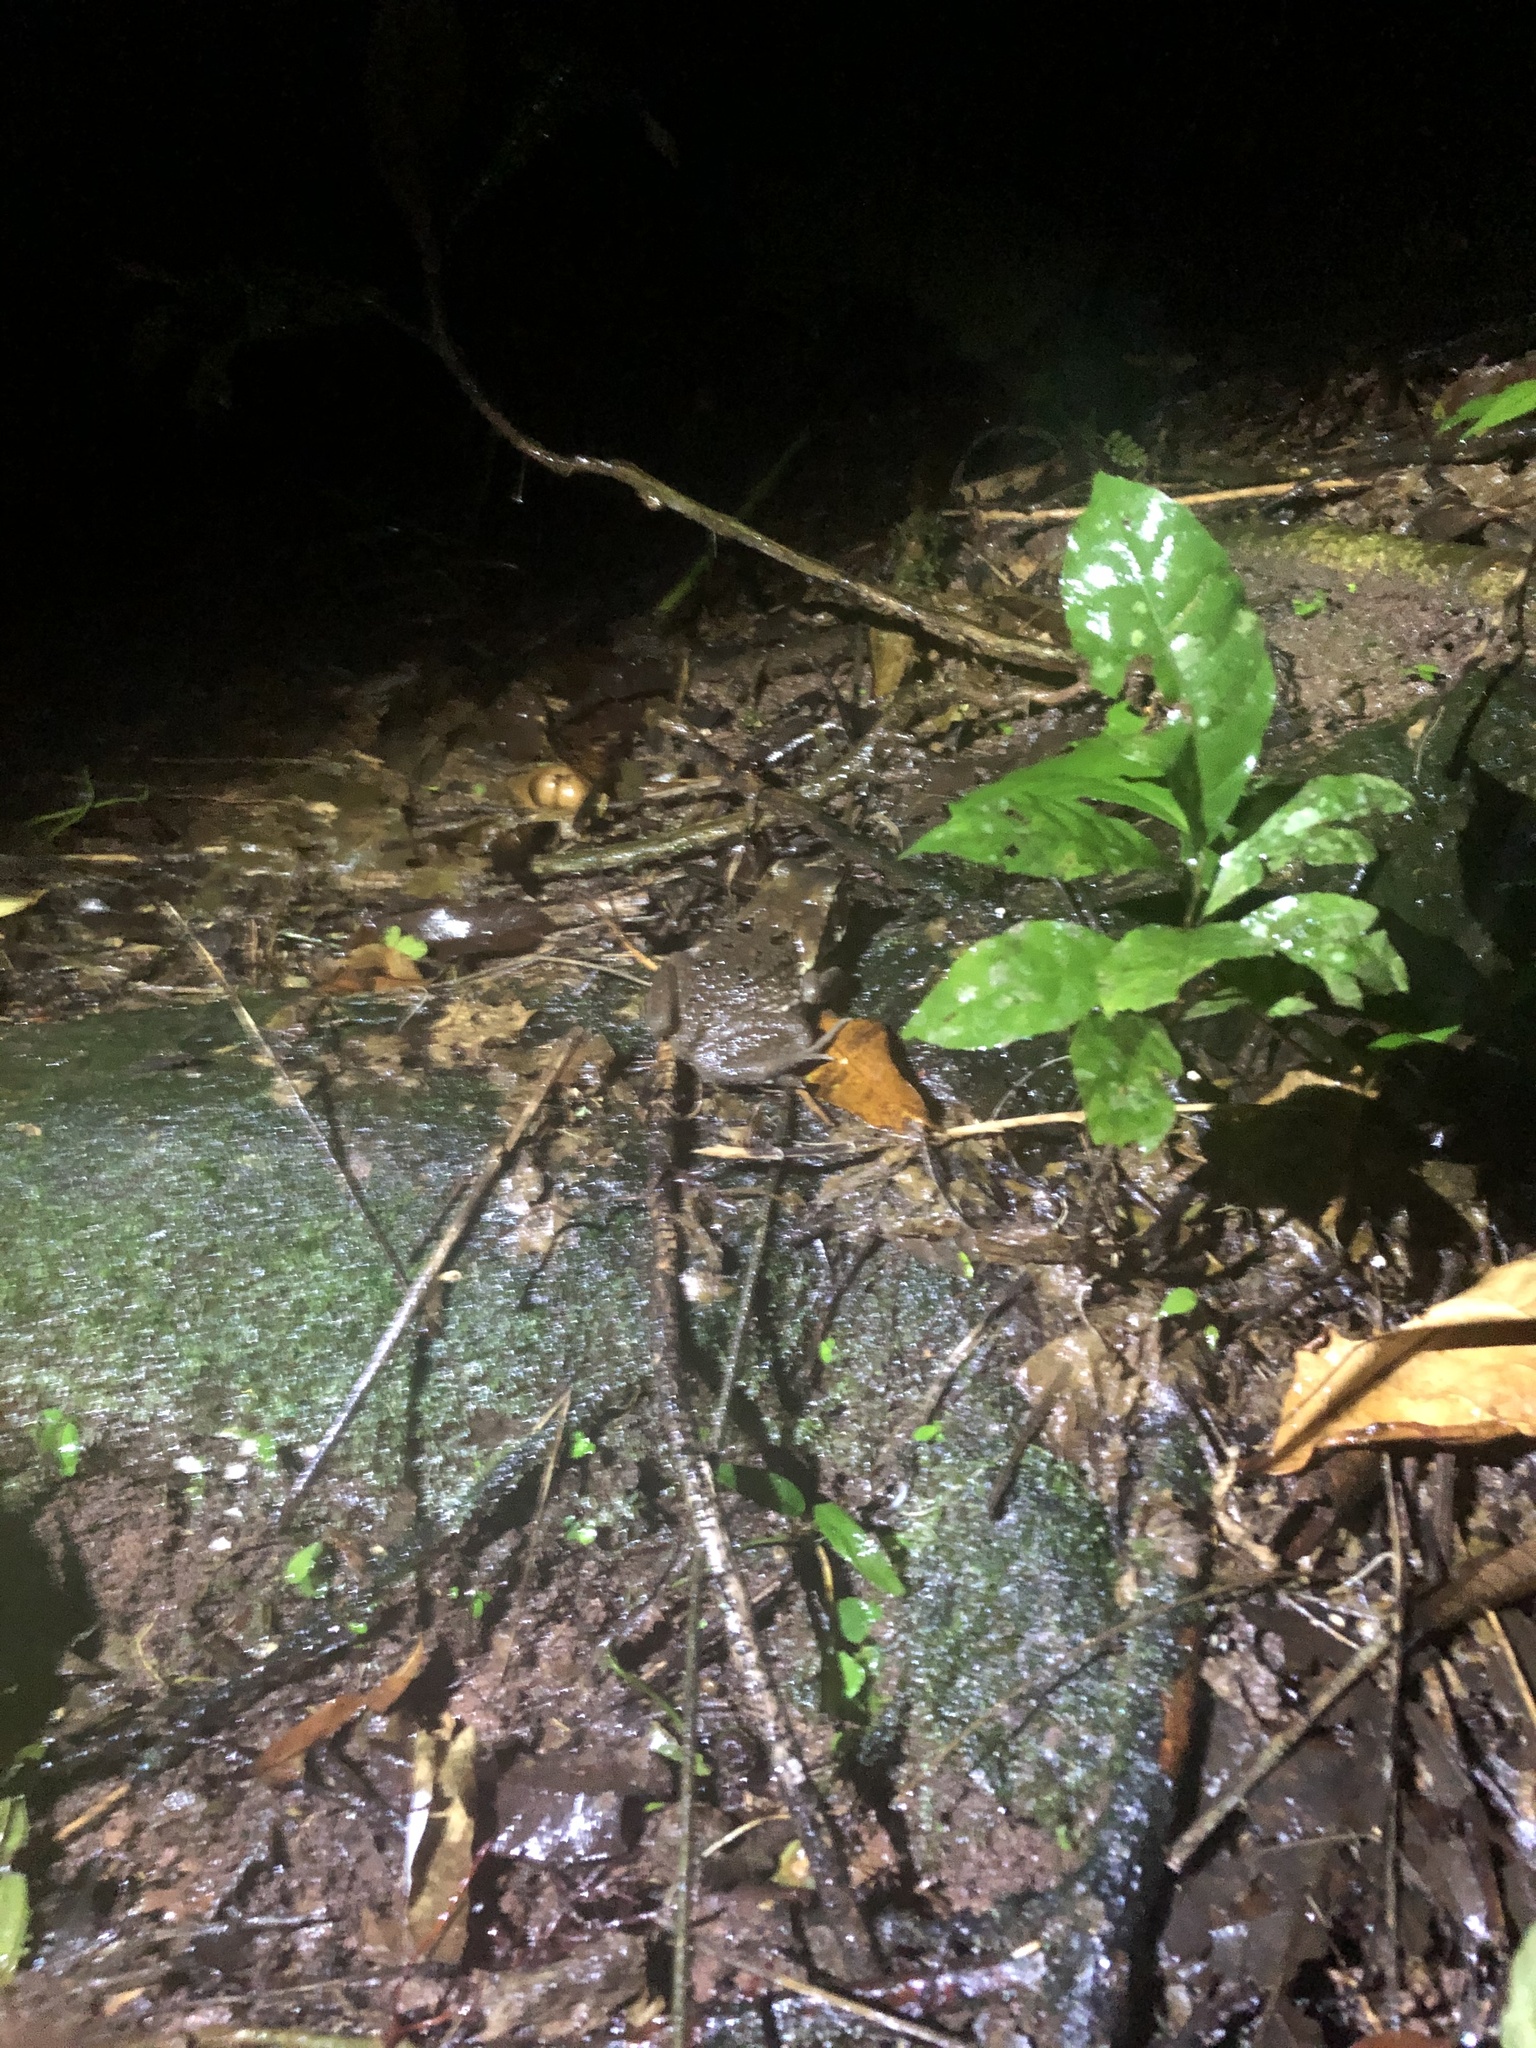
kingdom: Animalia
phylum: Chordata
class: Amphibia
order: Anura
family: Bufonidae
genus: Rhinella
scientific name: Rhinella marina
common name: Cane toad
